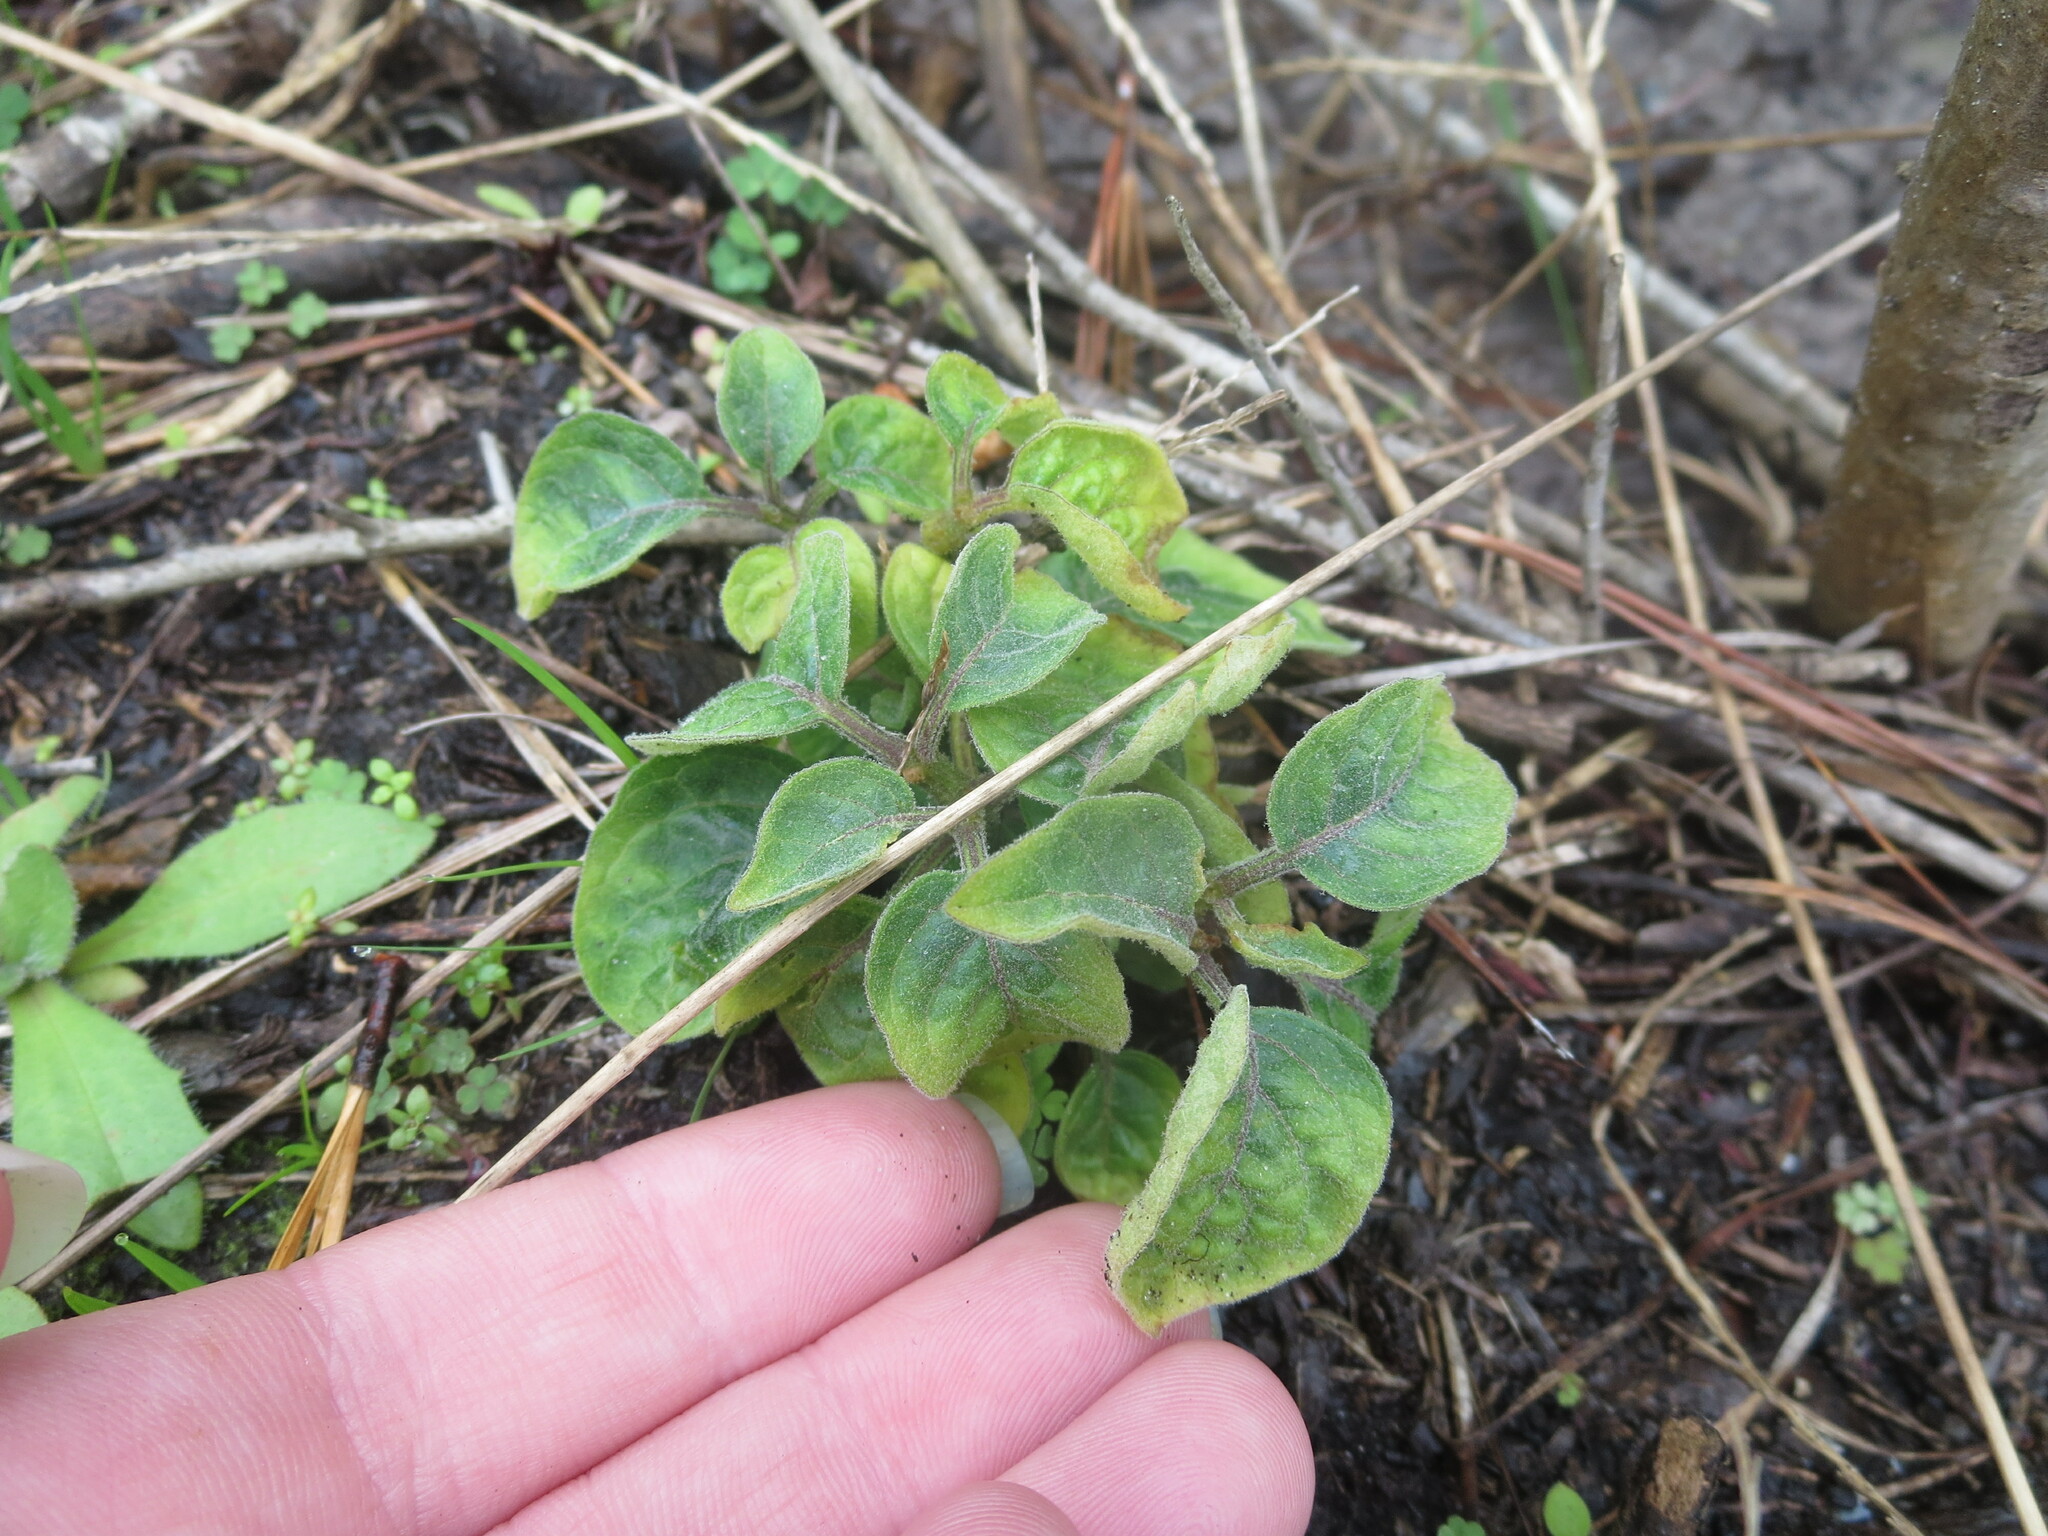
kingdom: Plantae
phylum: Tracheophyta
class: Magnoliopsida
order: Solanales
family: Solanaceae
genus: Physalis
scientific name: Physalis walteri
